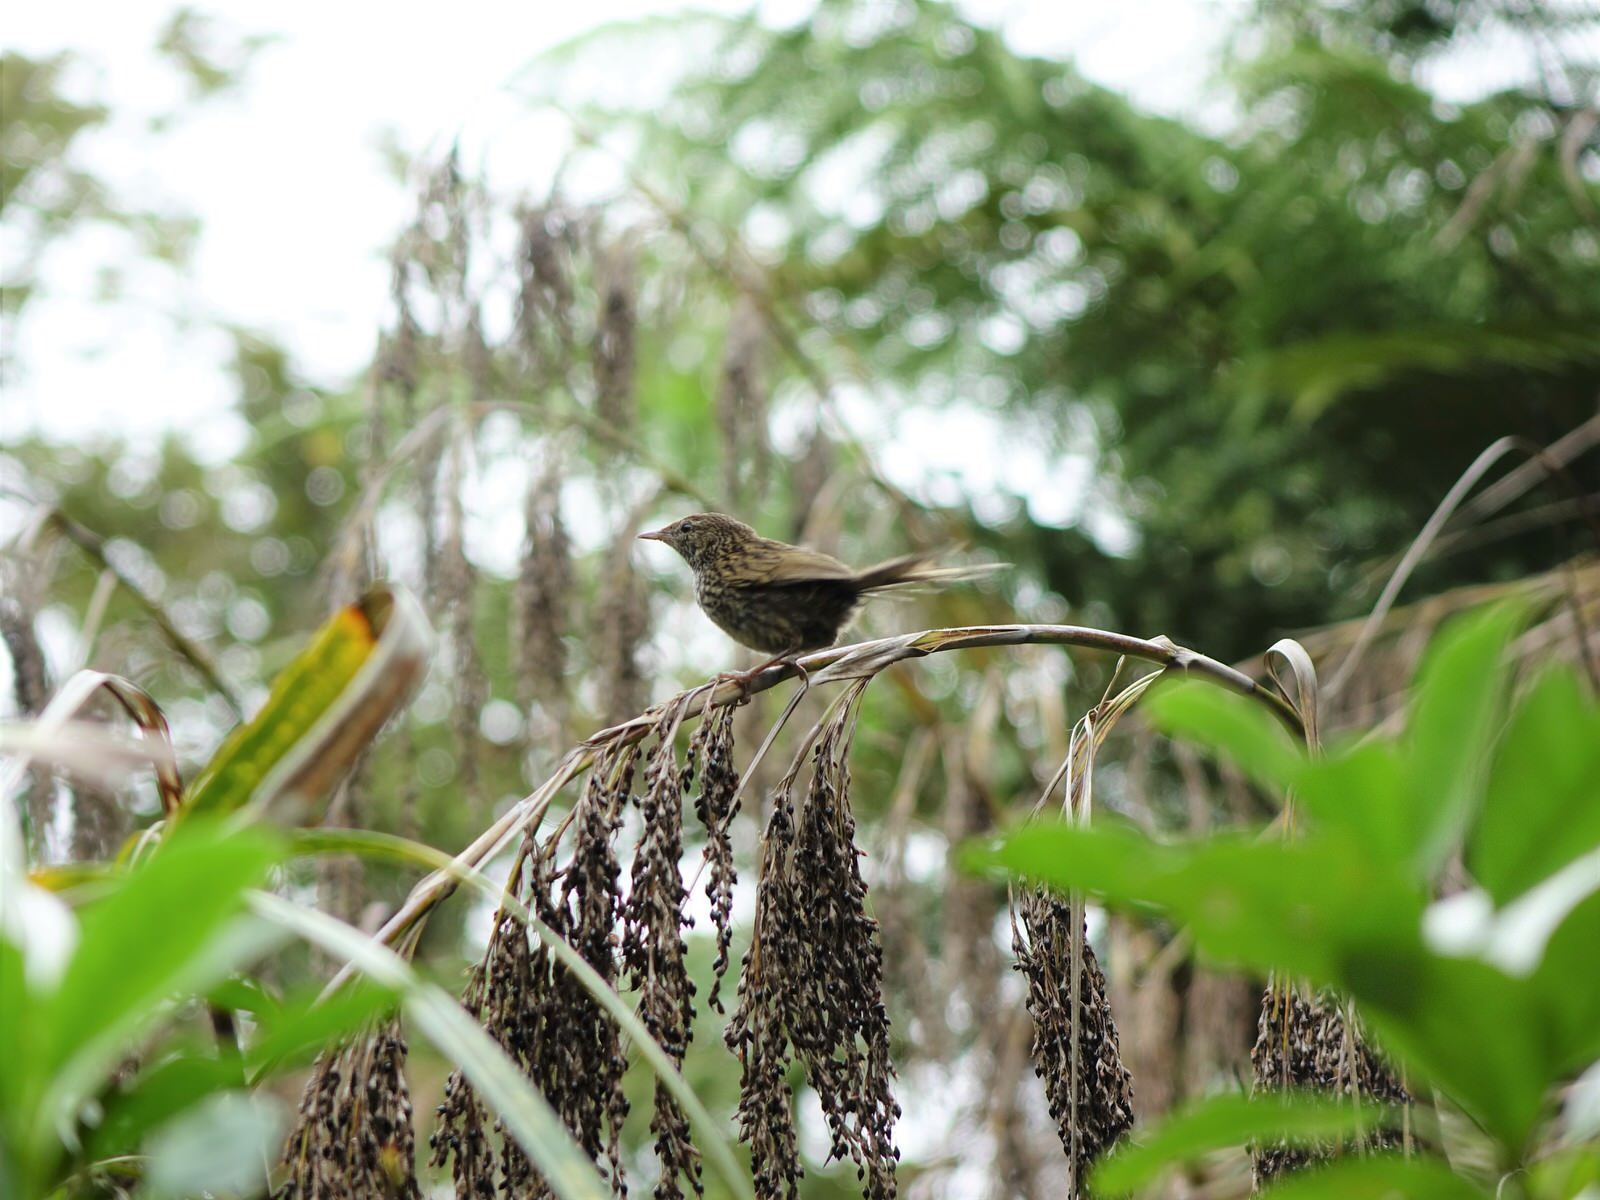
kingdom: Animalia
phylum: Chordata
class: Aves
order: Passeriformes
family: Locustellidae
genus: Megalurus
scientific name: Megalurus punctatus
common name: New zealand fernbird
